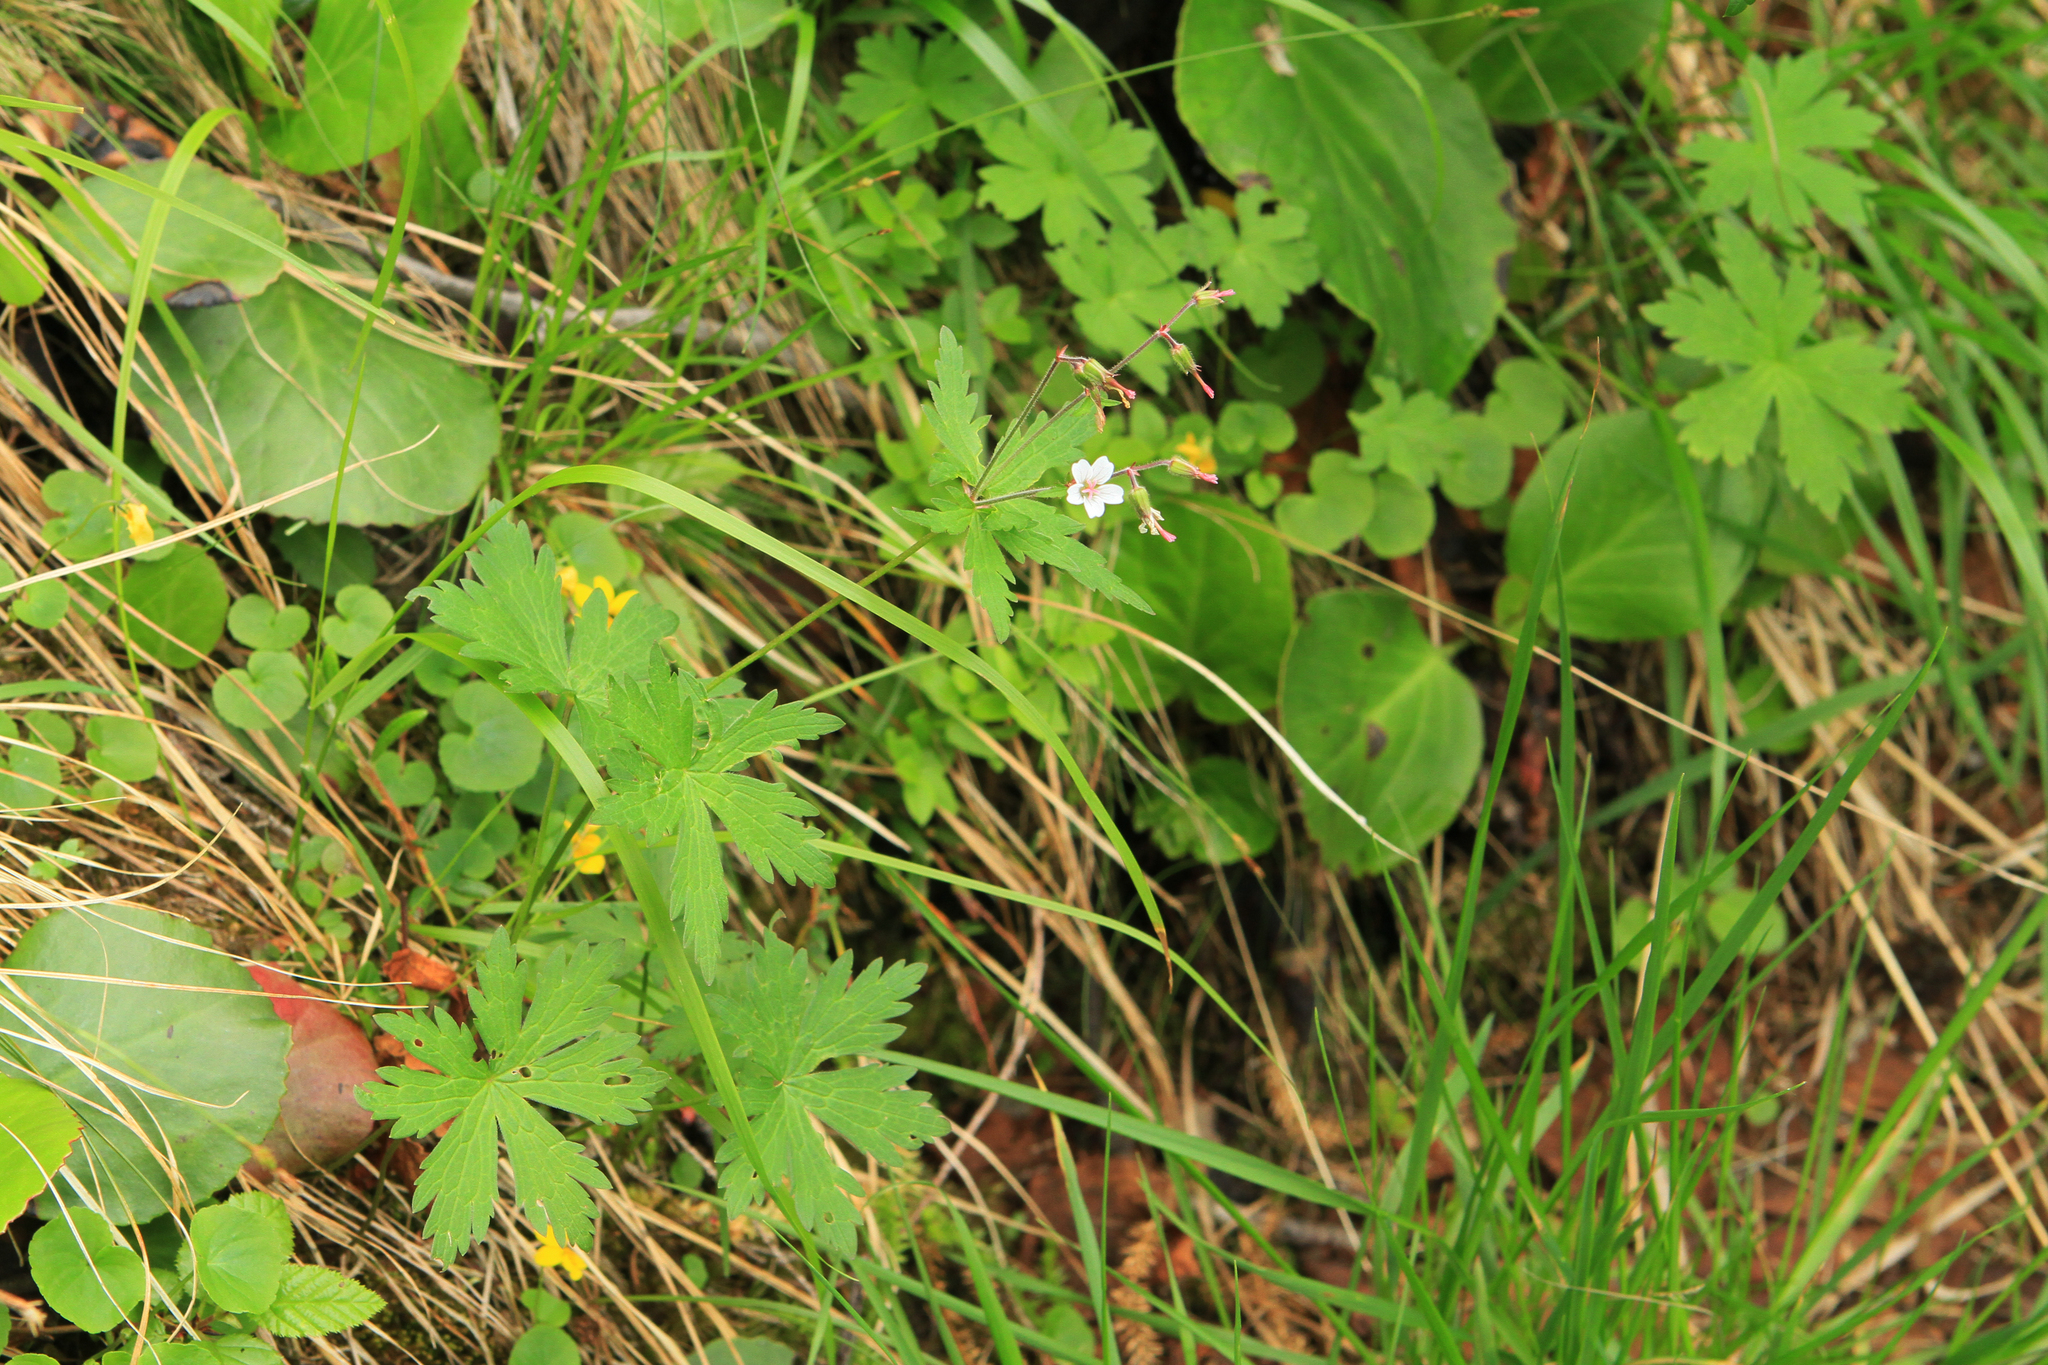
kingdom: Plantae
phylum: Tracheophyta
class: Magnoliopsida
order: Geraniales
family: Geraniaceae
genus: Geranium
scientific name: Geranium sylvaticum
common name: Wood crane's-bill
